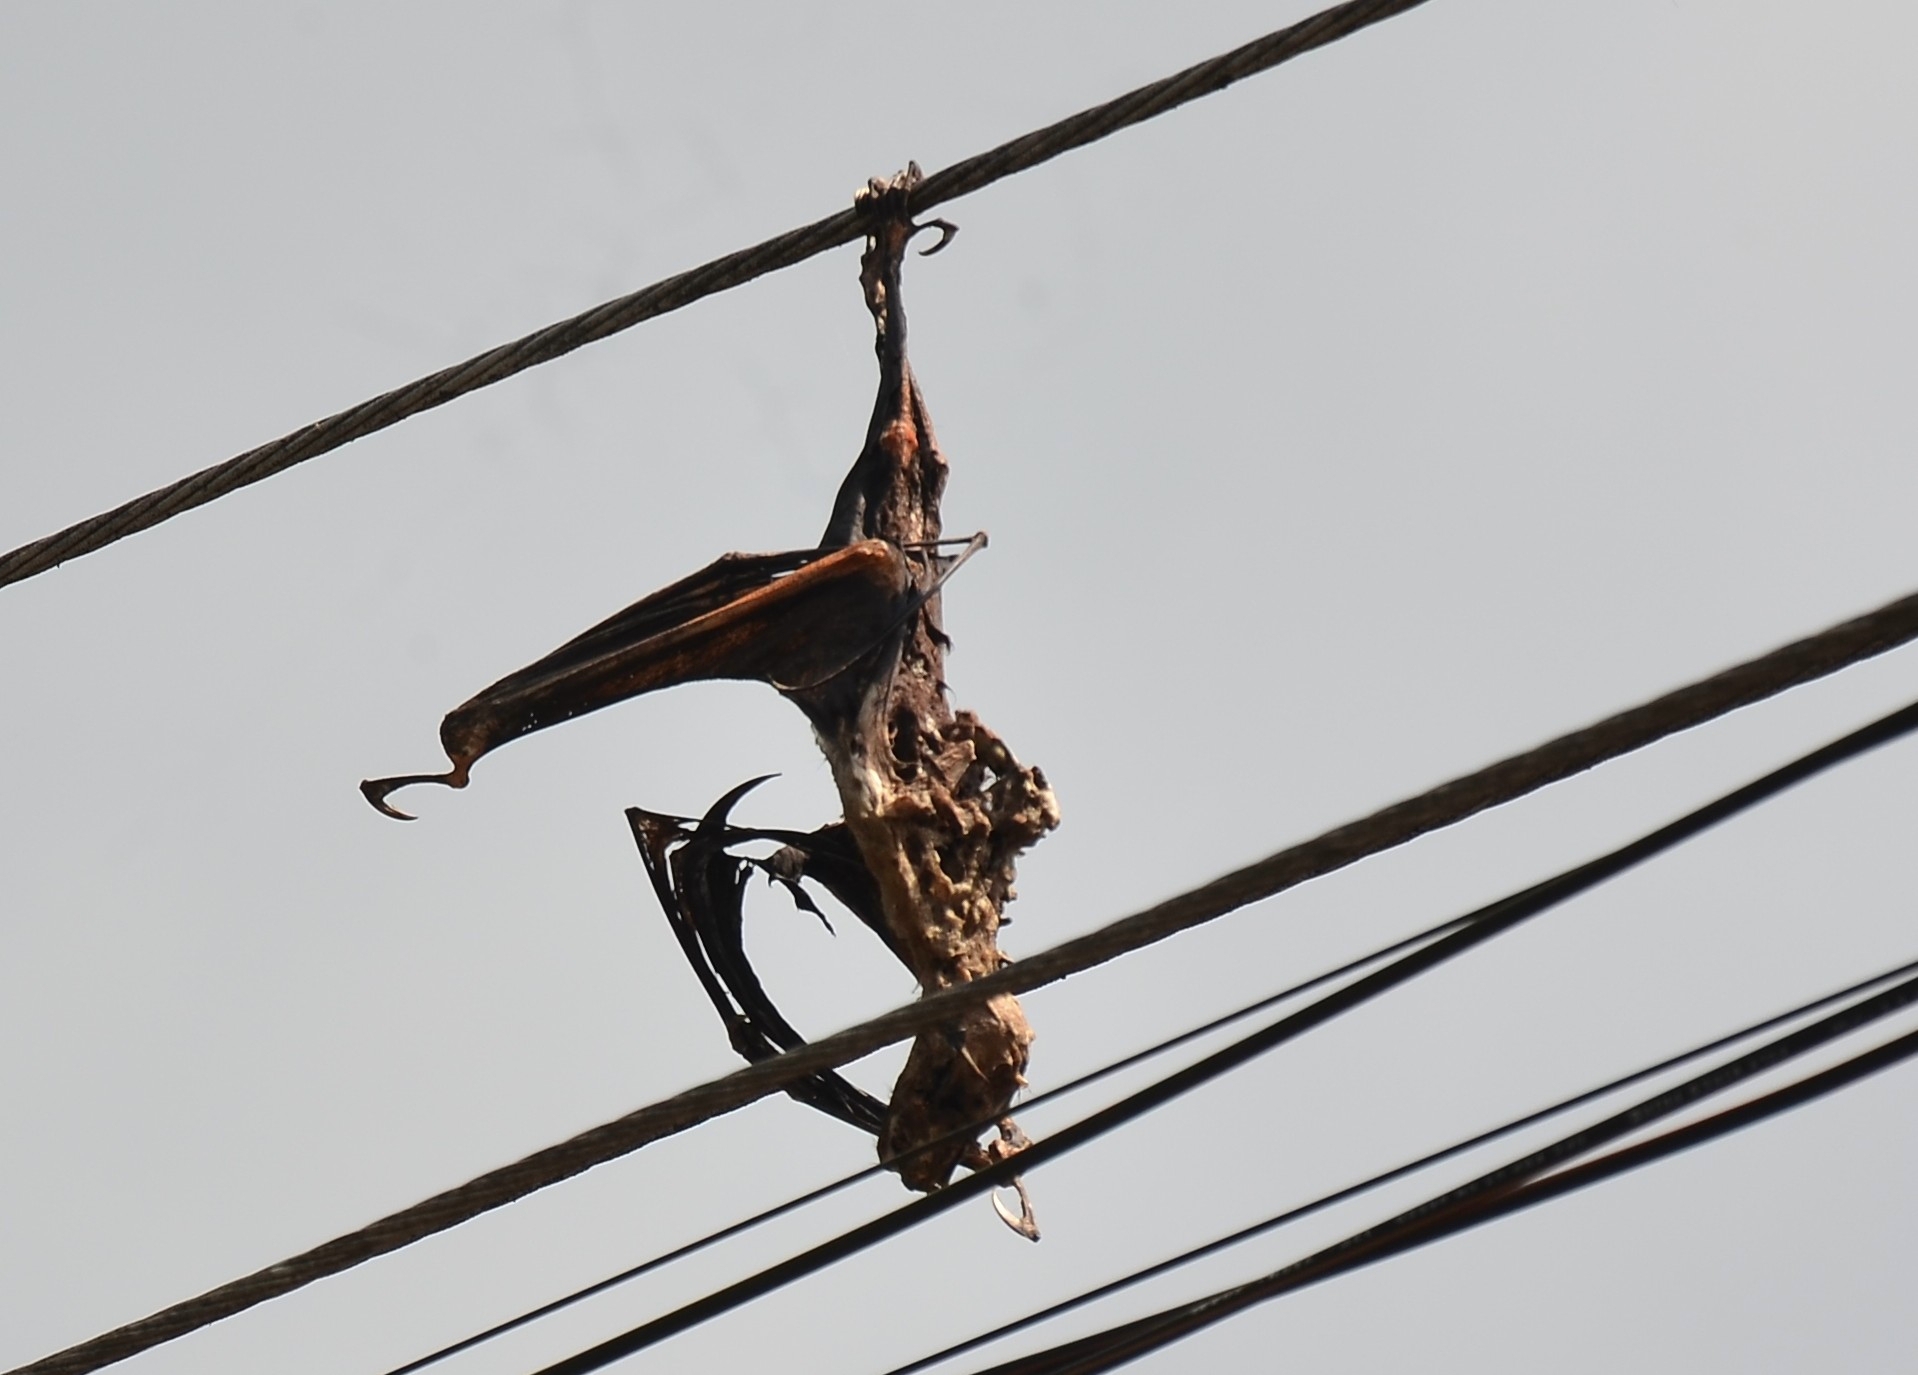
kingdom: Animalia
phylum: Chordata
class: Mammalia
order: Chiroptera
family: Pteropodidae
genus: Pteropus
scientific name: Pteropus vampyrus
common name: Large flying fox
